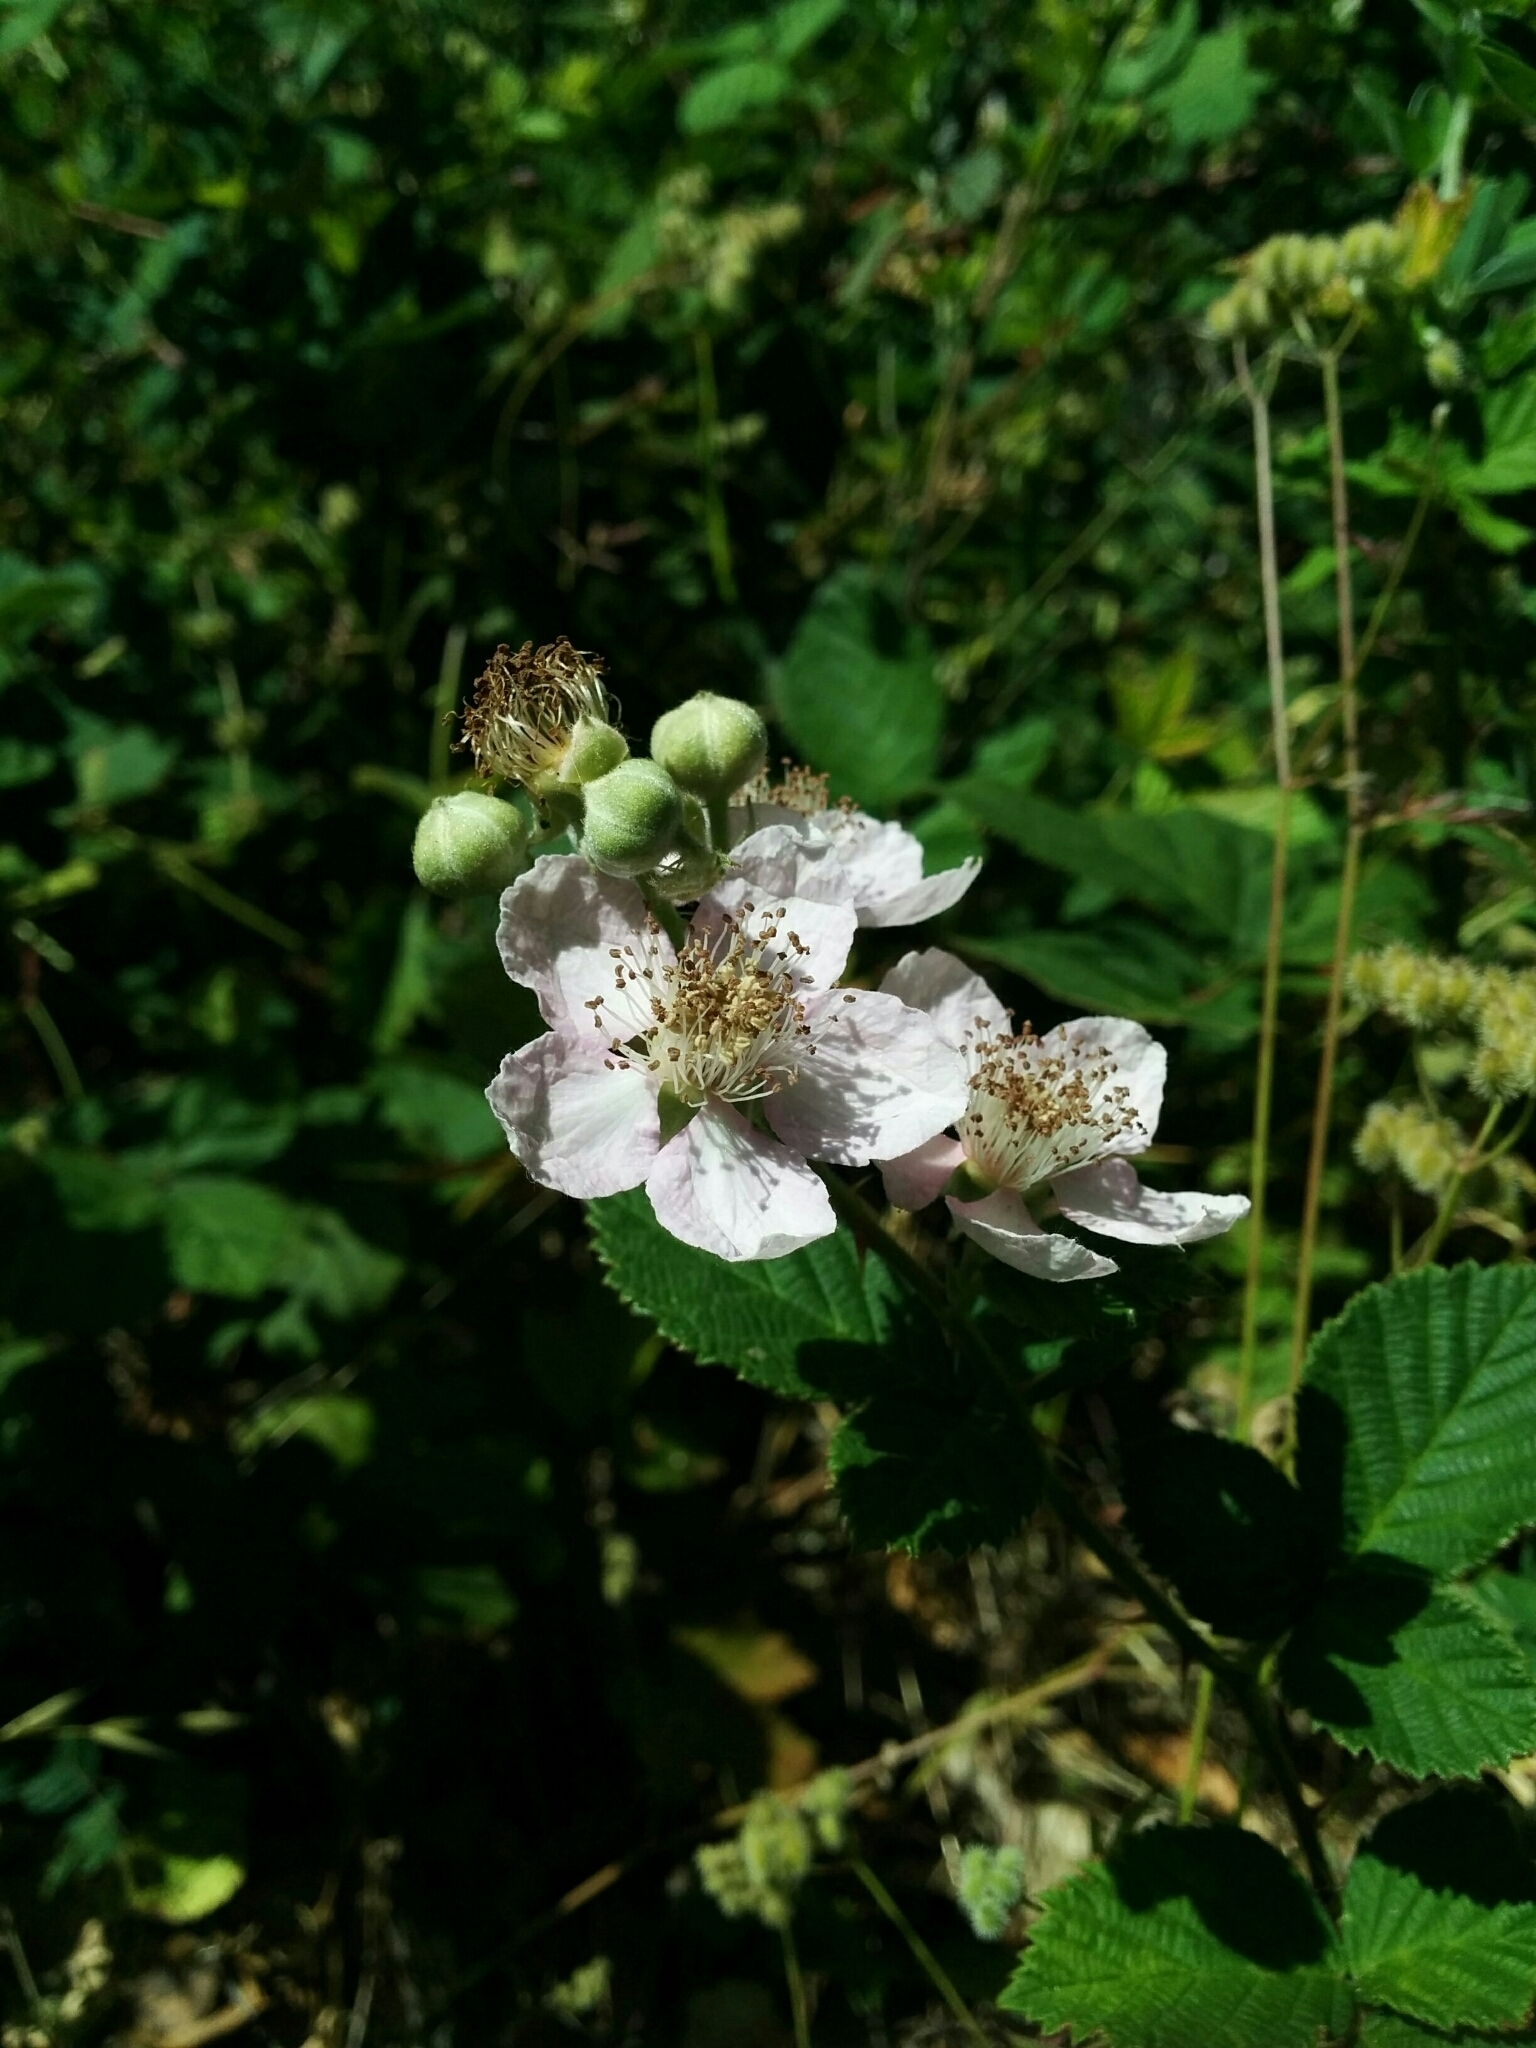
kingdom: Plantae
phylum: Tracheophyta
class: Magnoliopsida
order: Rosales
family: Rosaceae
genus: Rubus
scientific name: Rubus armeniacus
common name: Himalayan blackberry
